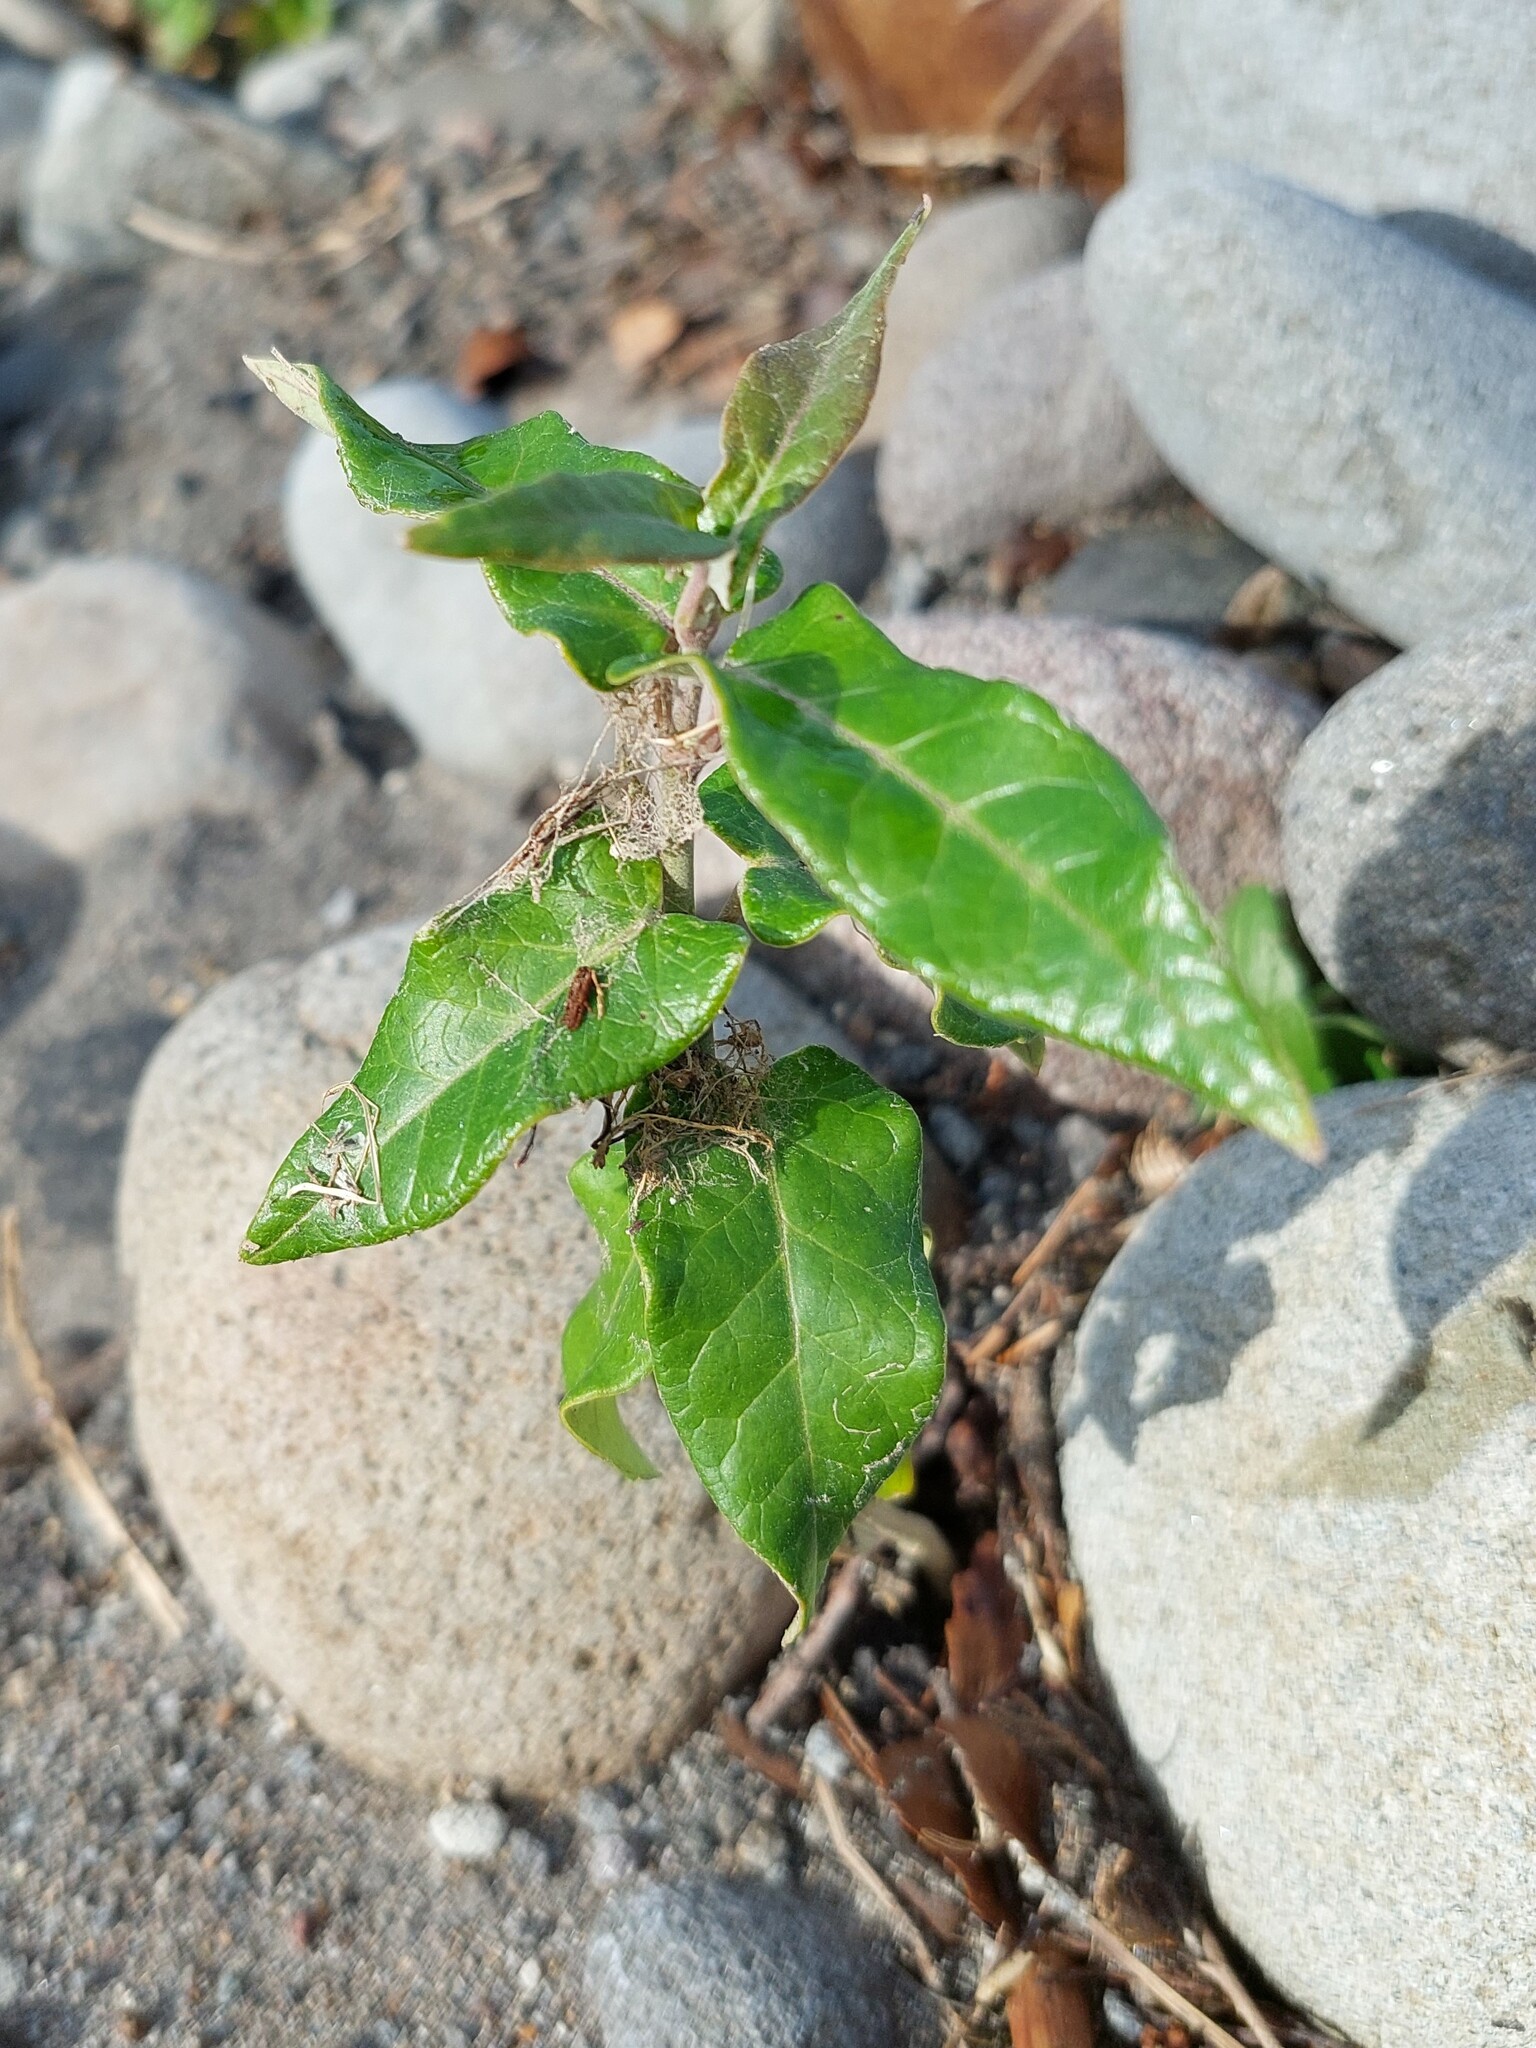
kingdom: Plantae
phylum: Tracheophyta
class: Magnoliopsida
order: Gentianales
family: Apocynaceae
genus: Araujia
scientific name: Araujia sericifera
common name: White bladderflower
